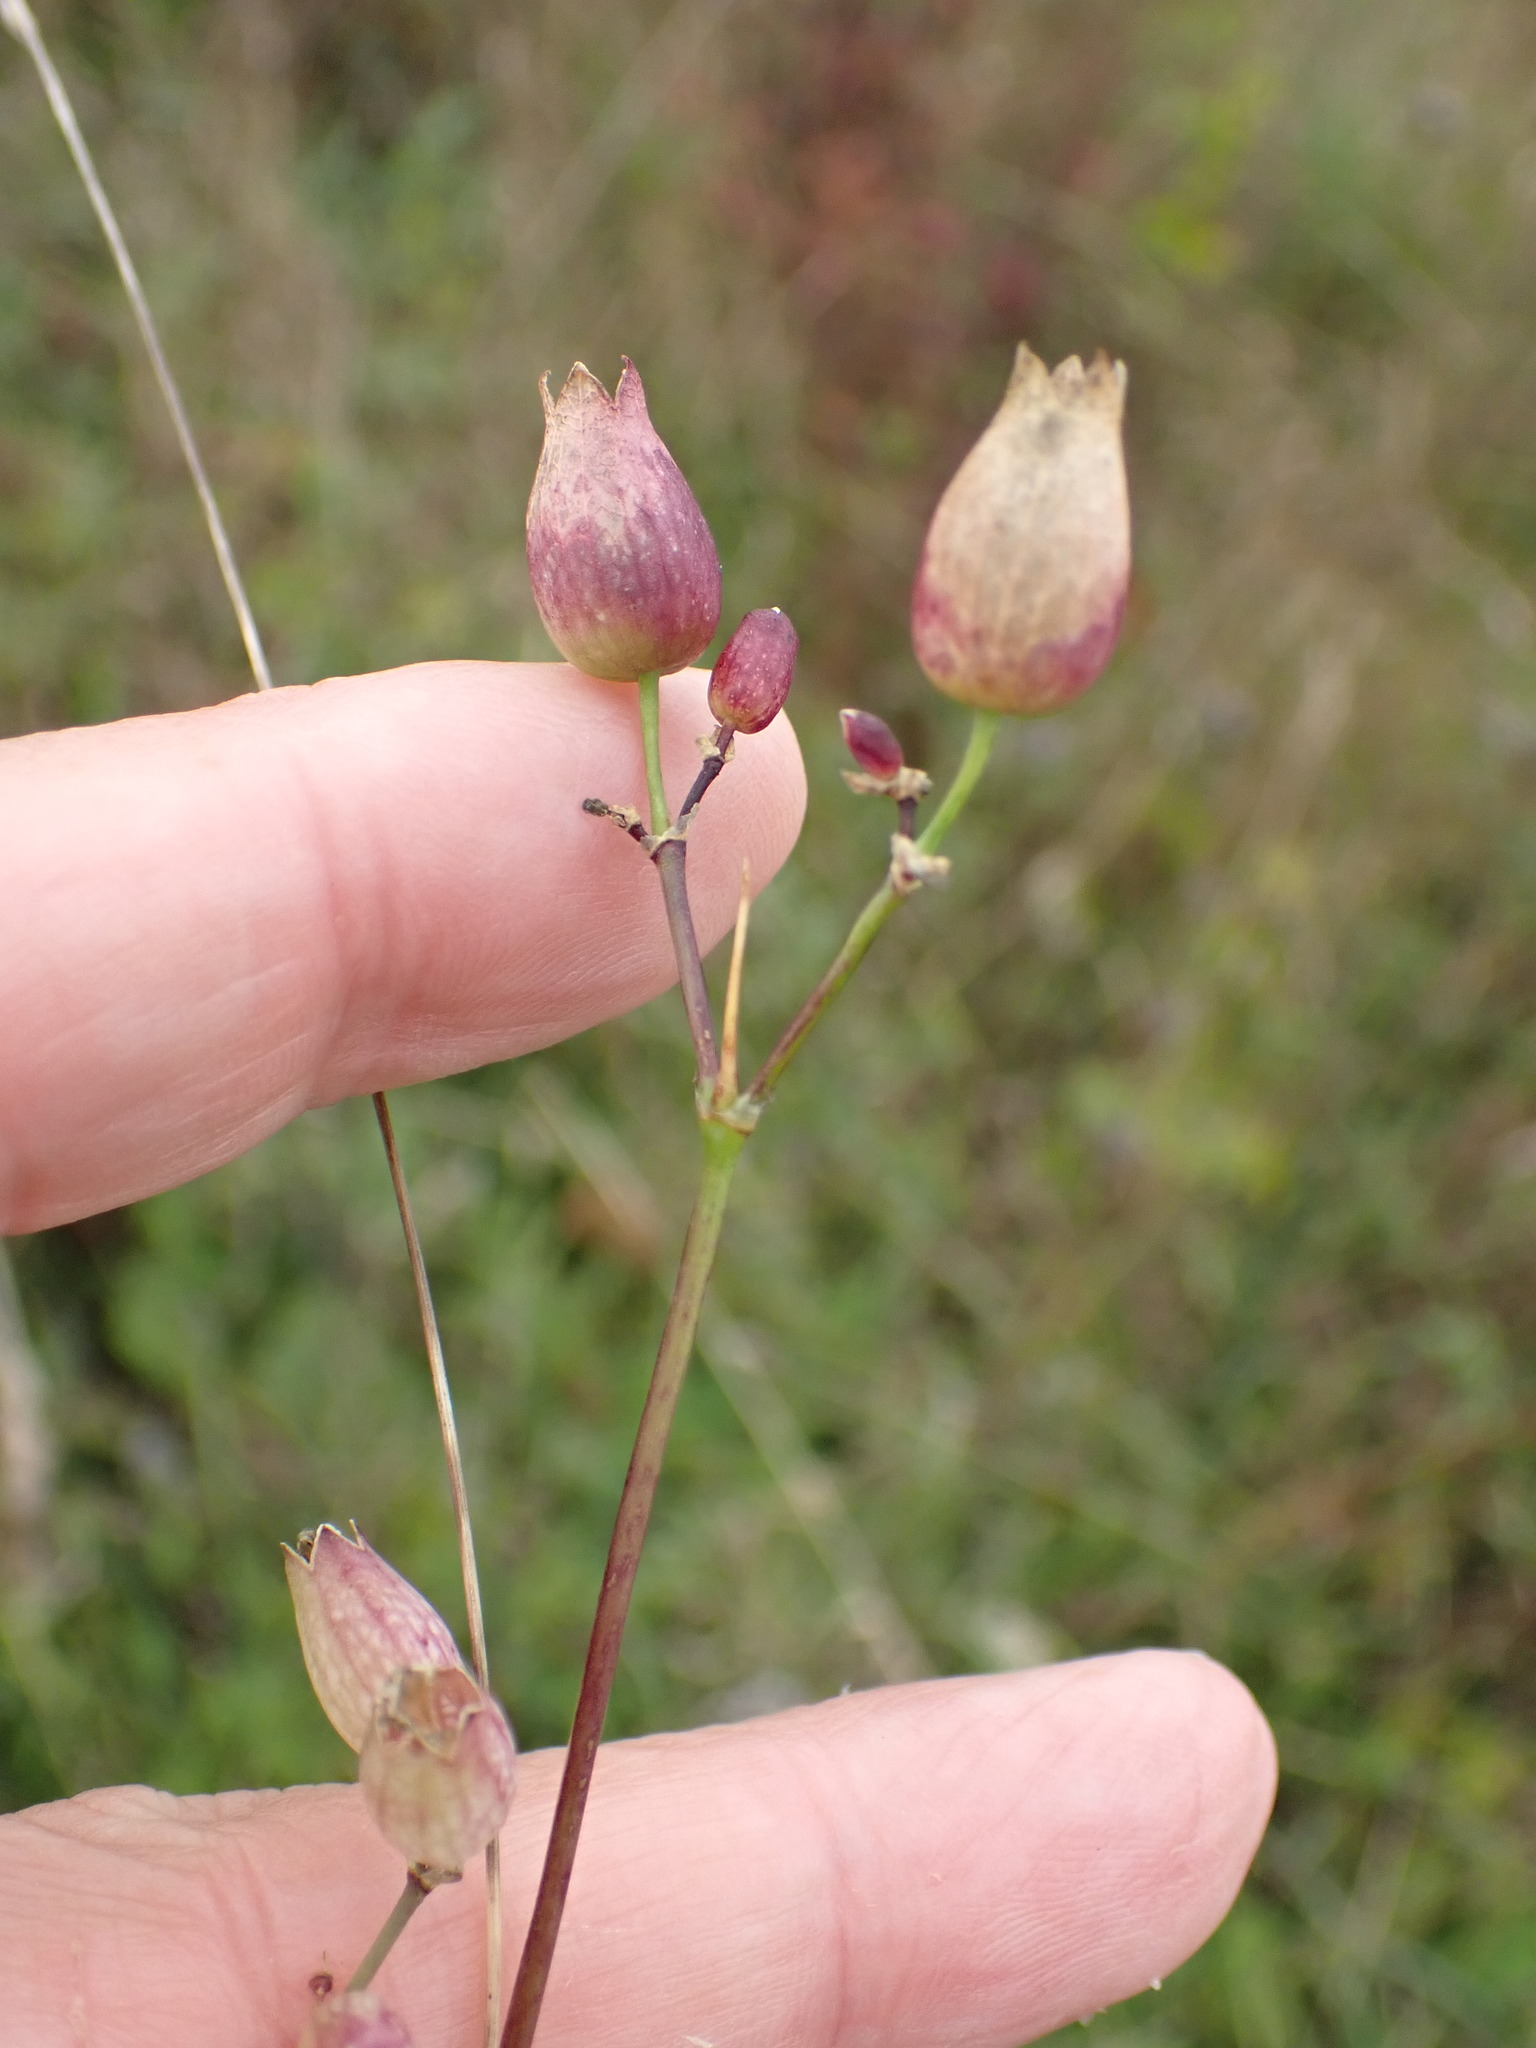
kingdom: Plantae
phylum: Tracheophyta
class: Magnoliopsida
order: Caryophyllales
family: Caryophyllaceae
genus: Silene
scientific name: Silene vulgaris
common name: Bladder campion
